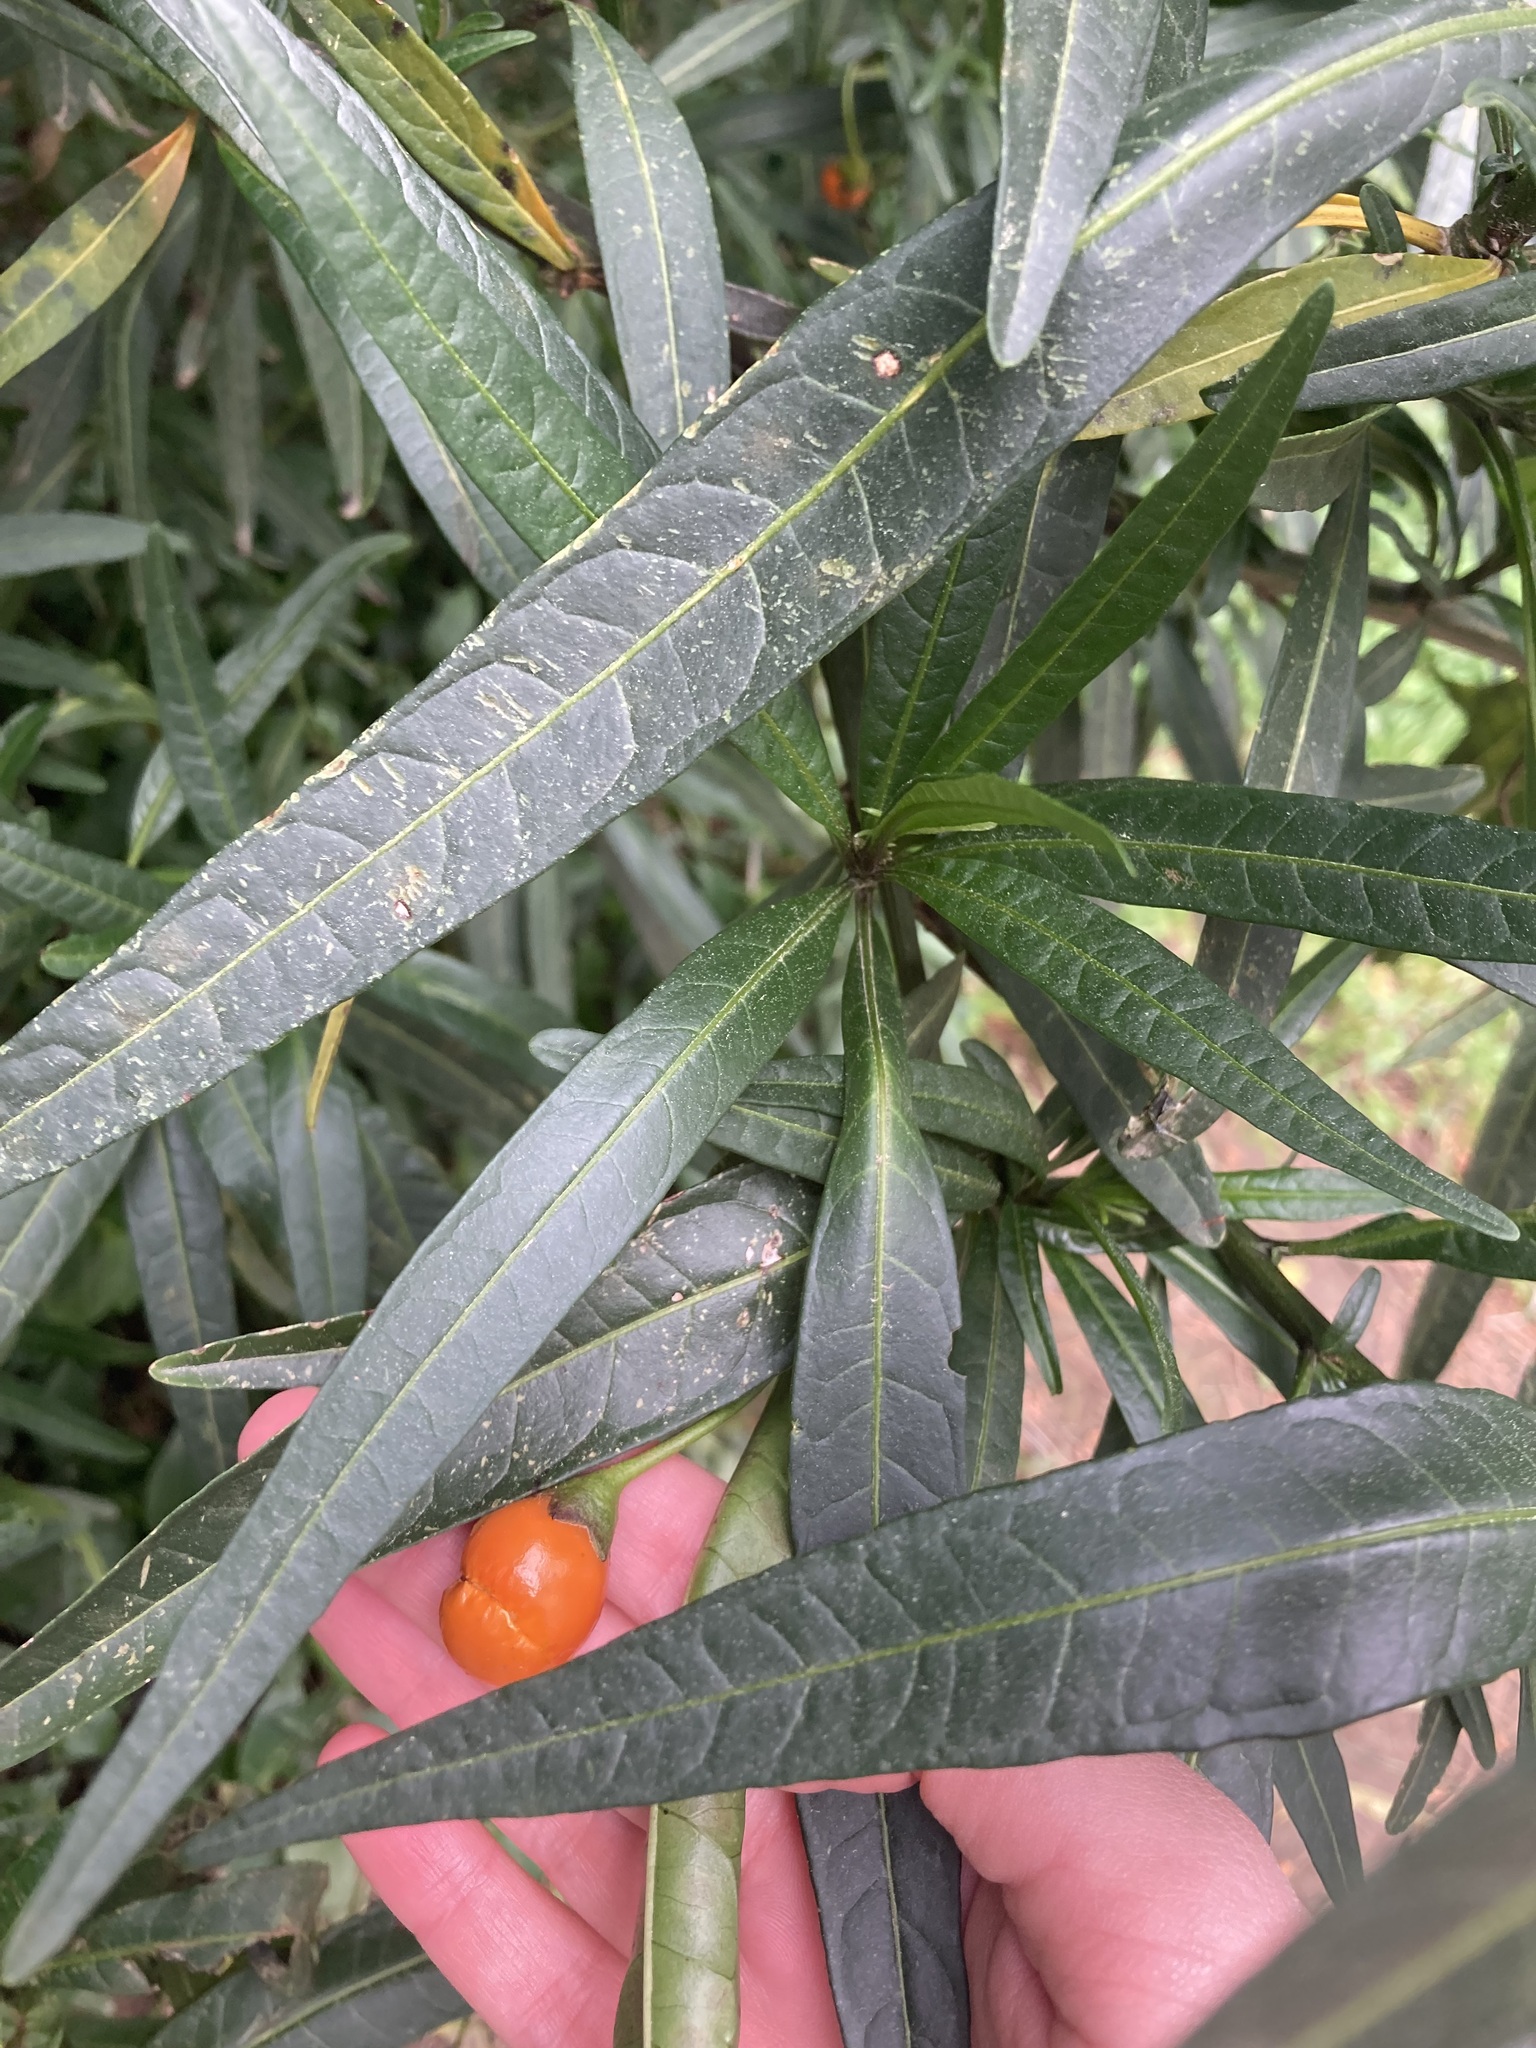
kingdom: Plantae
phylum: Tracheophyta
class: Magnoliopsida
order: Solanales
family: Solanaceae
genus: Solanum
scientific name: Solanum aviculare
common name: New zealand nightshade
